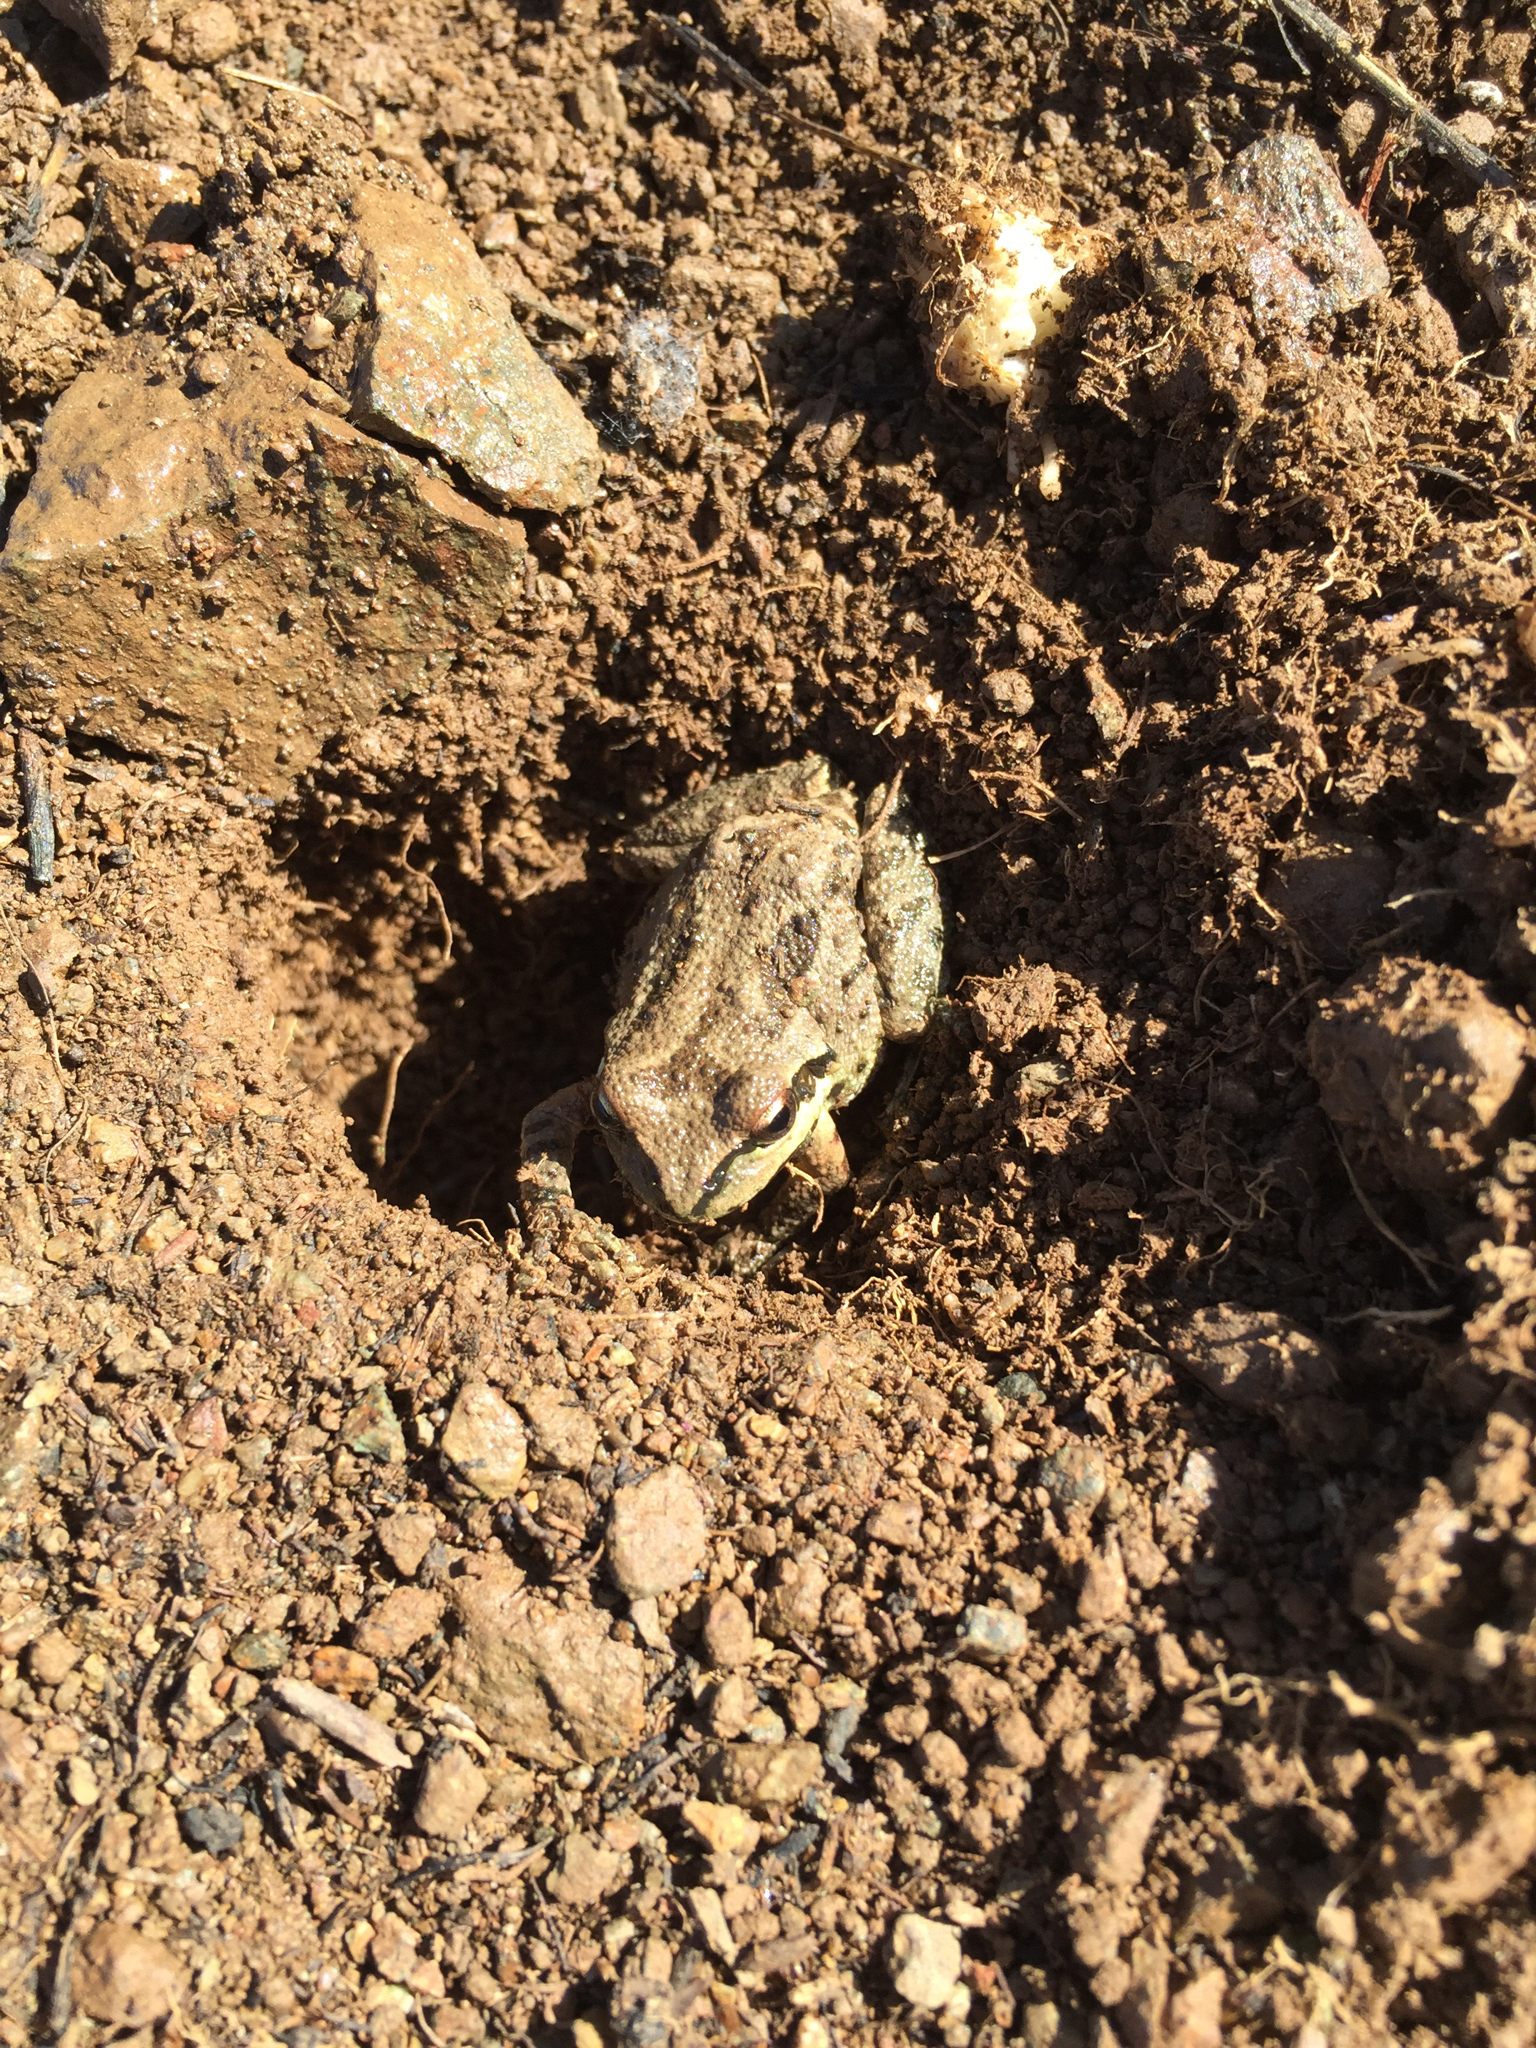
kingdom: Animalia
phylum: Chordata
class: Amphibia
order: Anura
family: Hylidae
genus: Pseudacris
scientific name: Pseudacris regilla
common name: Pacific chorus frog
